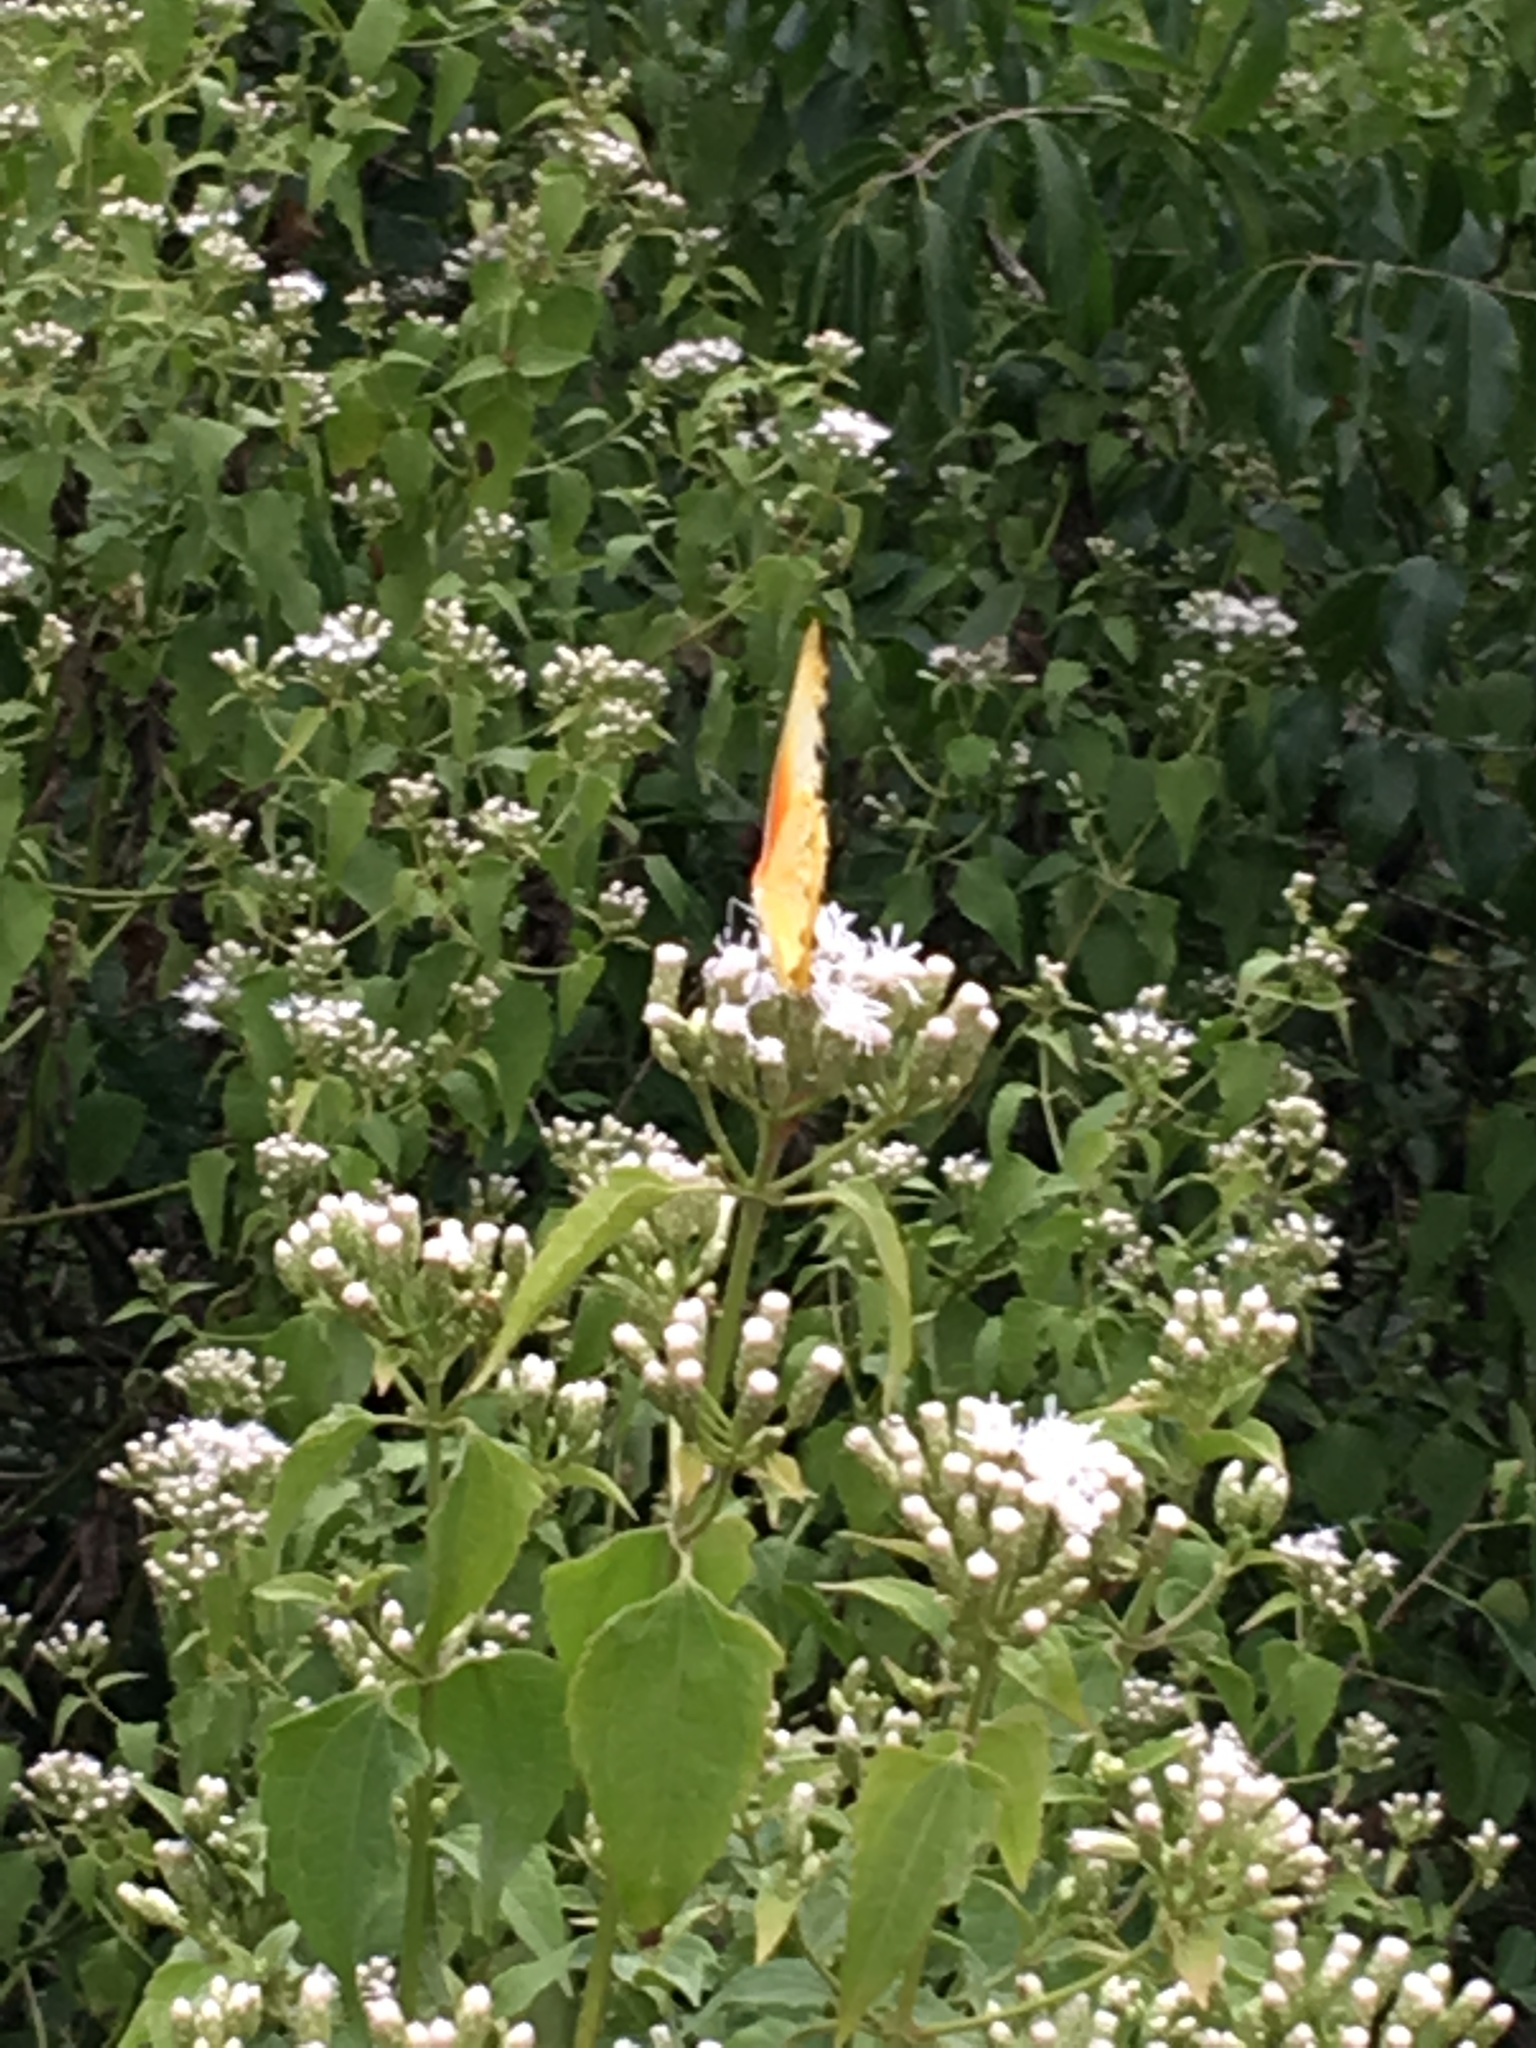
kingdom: Animalia
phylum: Arthropoda
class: Insecta
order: Lepidoptera
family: Pieridae
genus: Mylothris
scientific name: Mylothris agathina
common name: Eastern dotted border
